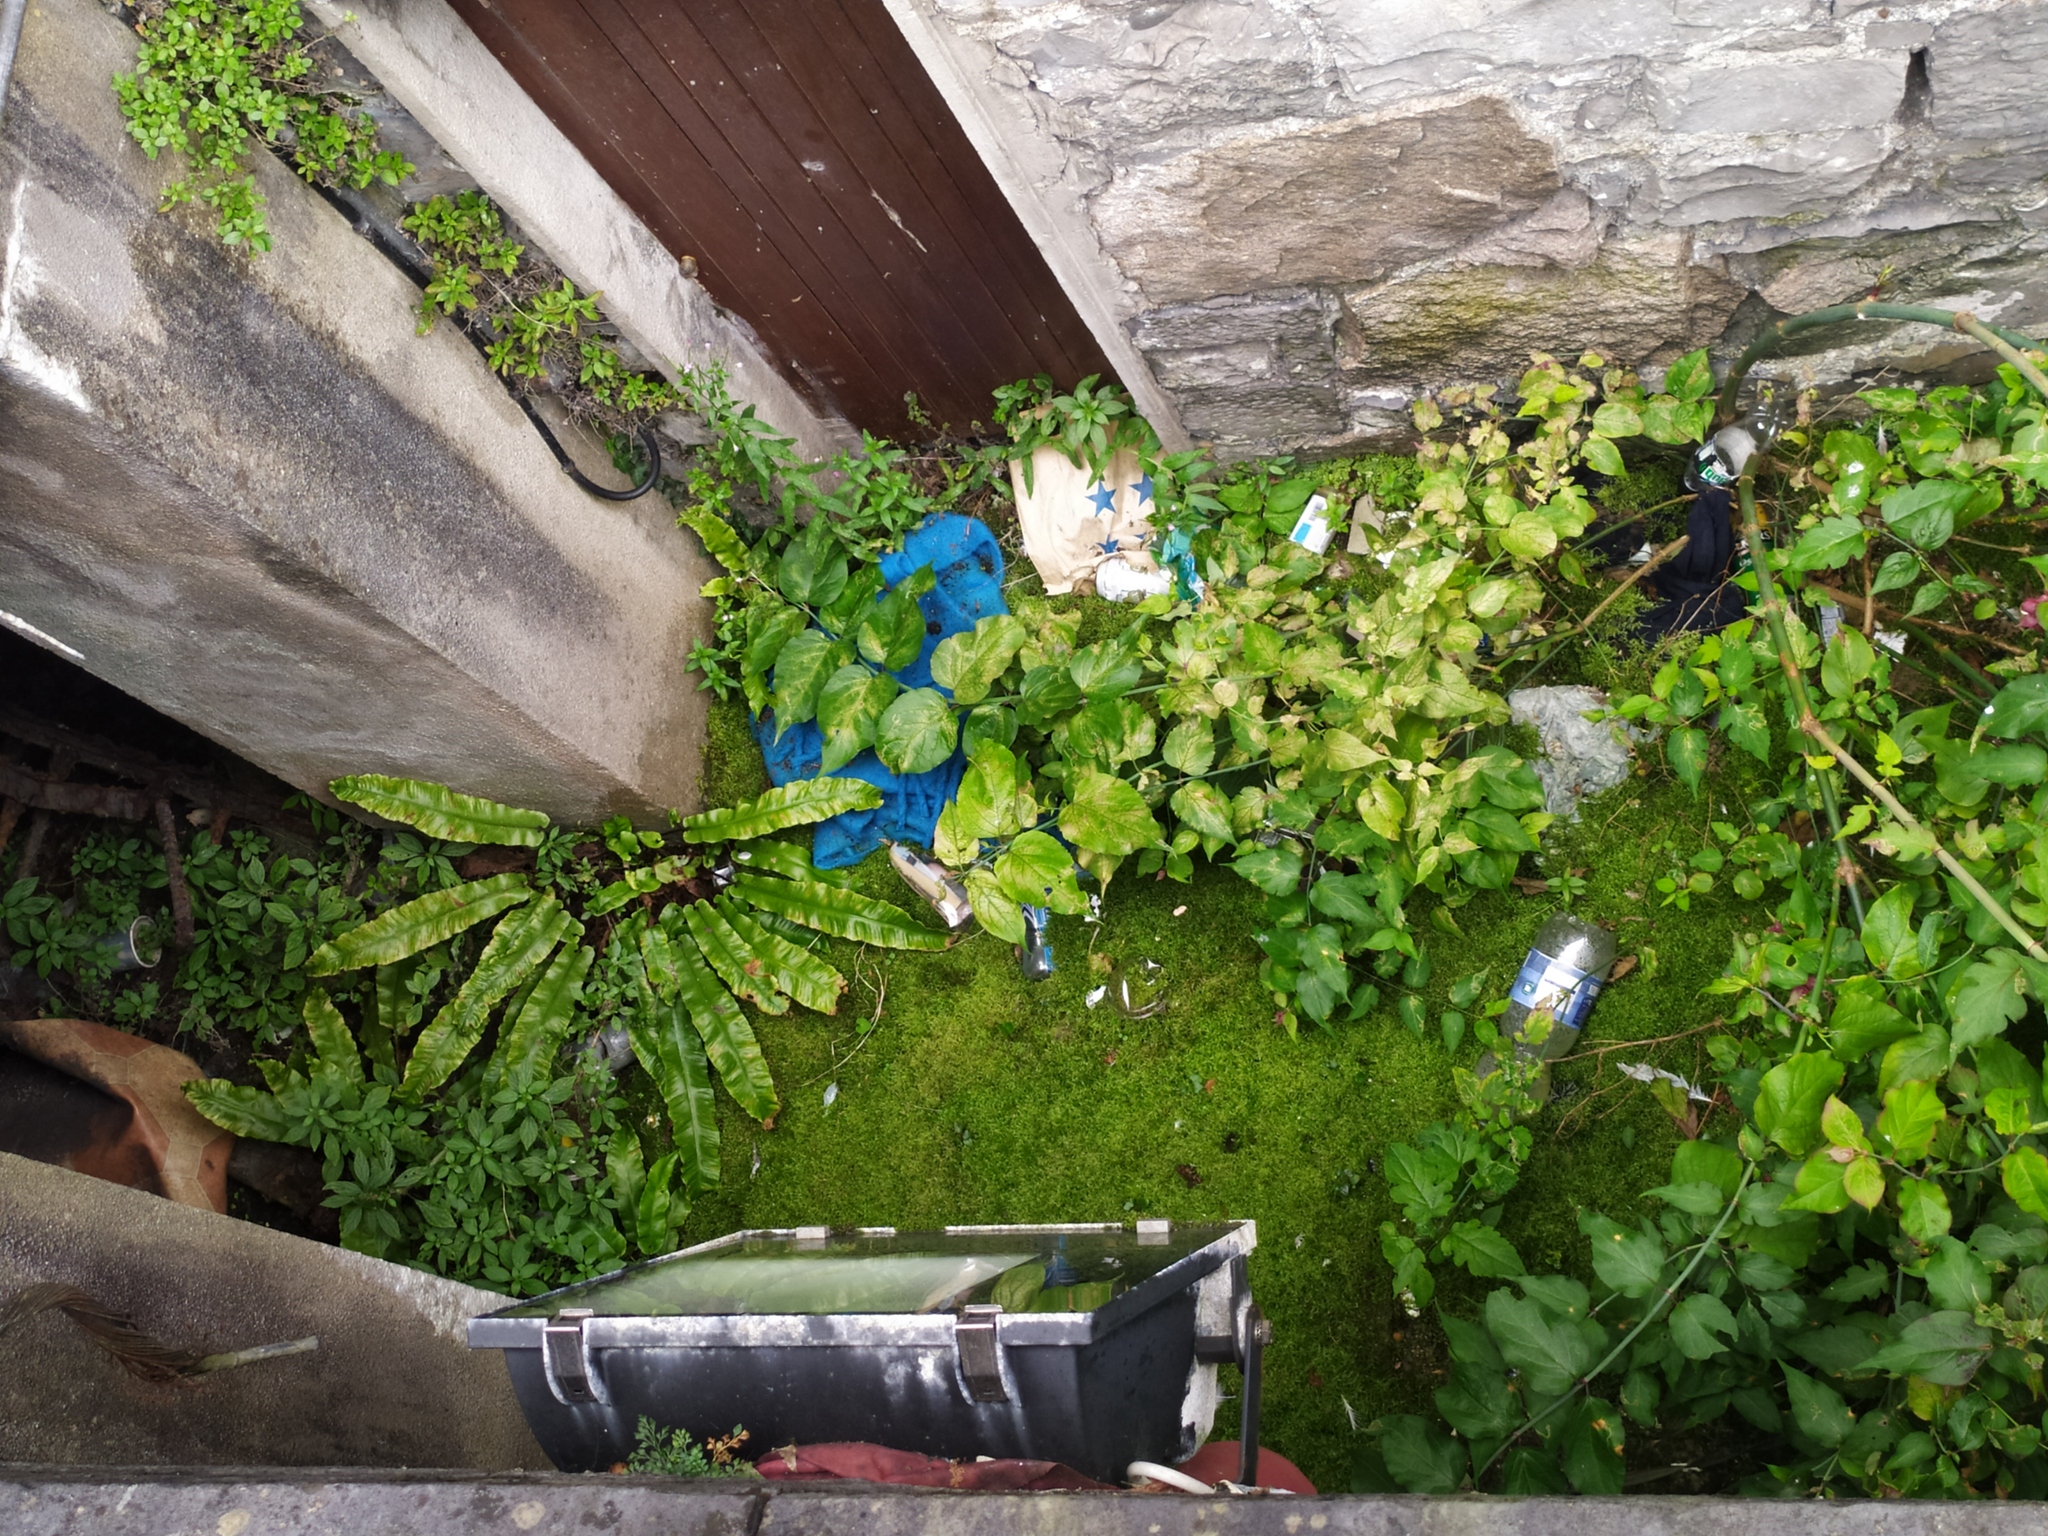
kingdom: Plantae
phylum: Tracheophyta
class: Polypodiopsida
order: Polypodiales
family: Aspleniaceae
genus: Asplenium
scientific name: Asplenium scolopendrium
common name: Hart's-tongue fern
